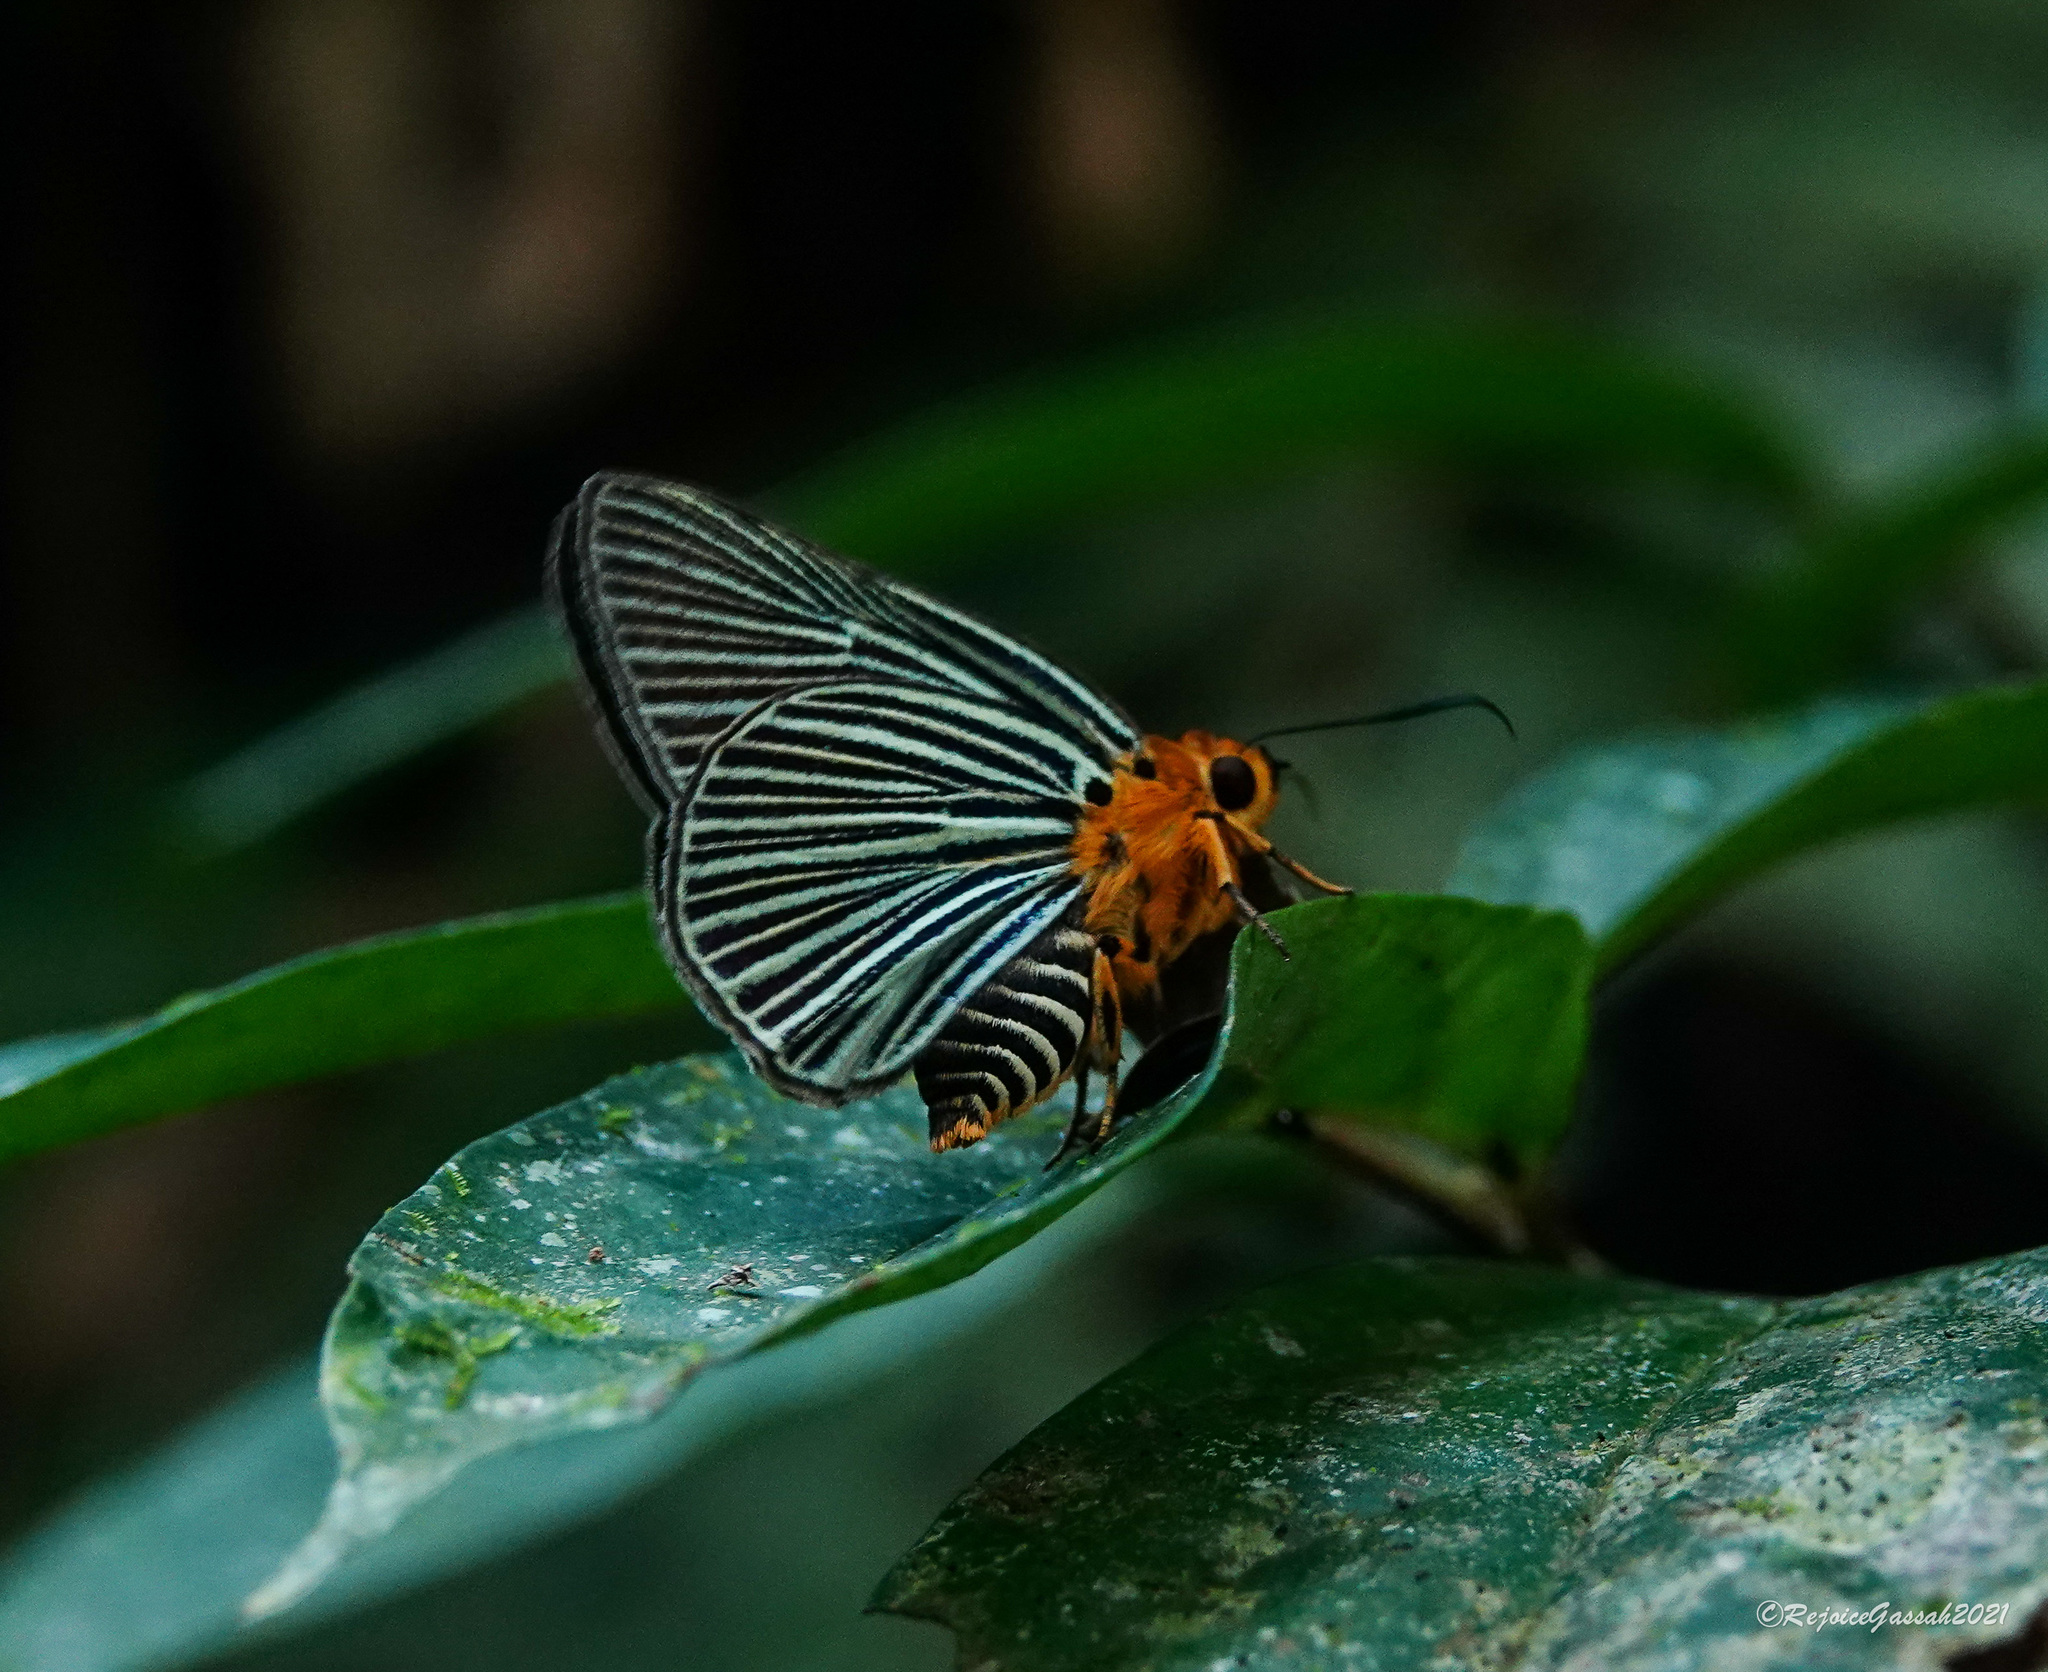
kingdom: Animalia
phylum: Arthropoda
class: Insecta
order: Lepidoptera
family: Hesperiidae
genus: Bibasis
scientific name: Bibasis amara
